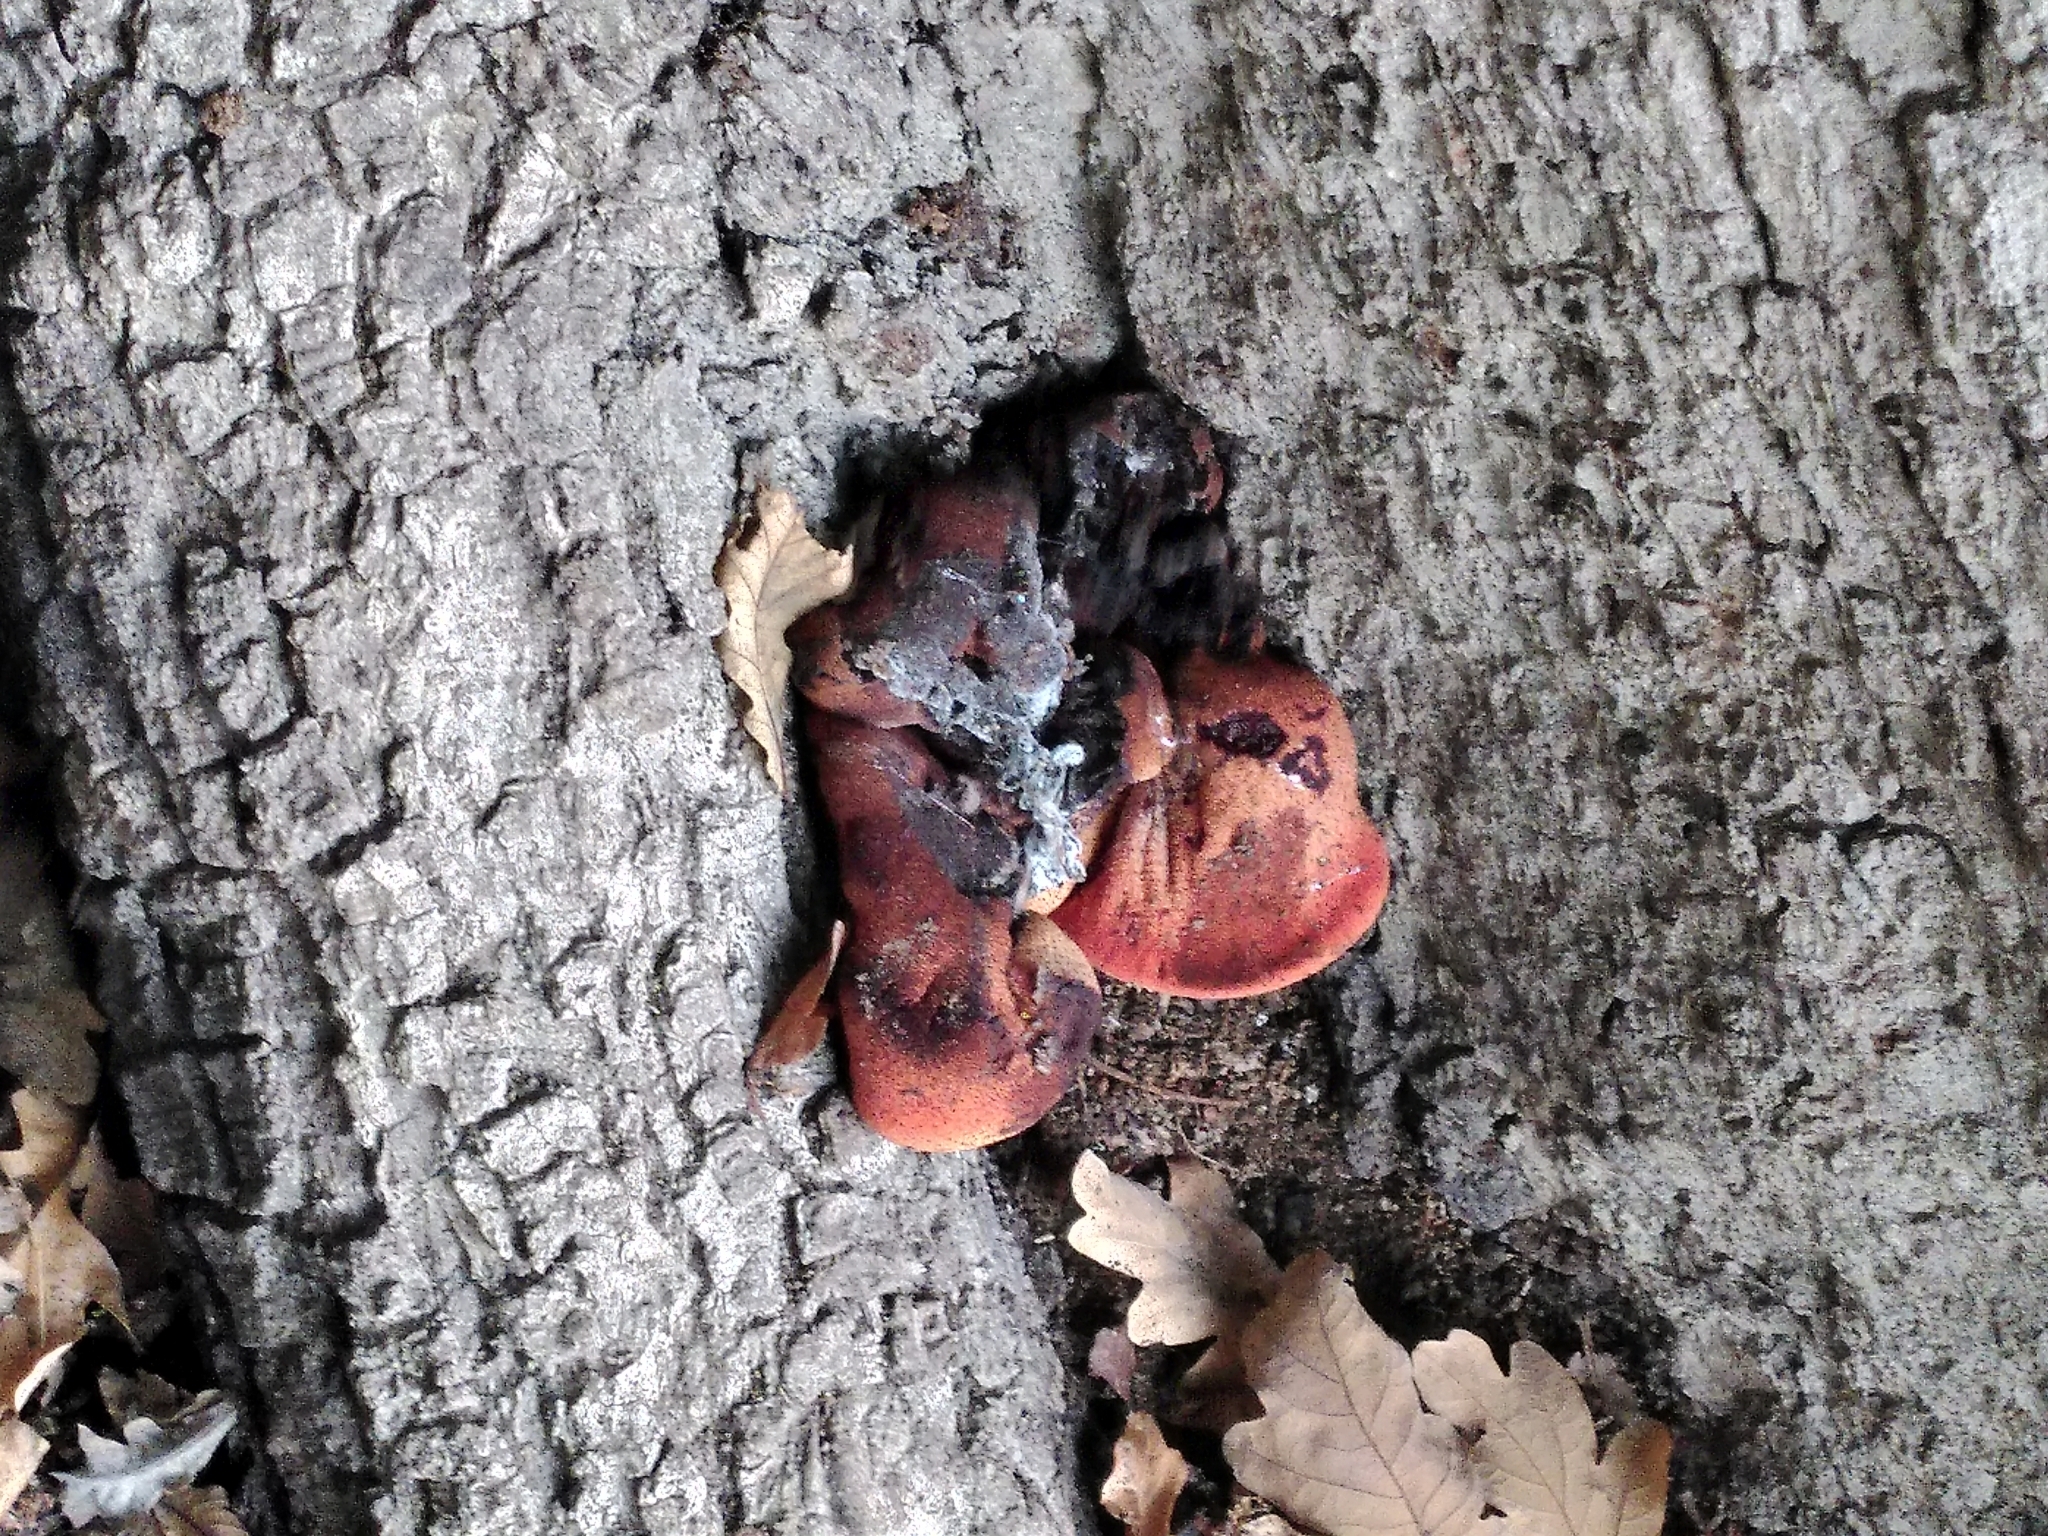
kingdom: Fungi
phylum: Basidiomycota
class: Agaricomycetes
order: Agaricales
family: Fistulinaceae
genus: Fistulina
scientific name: Fistulina hepatica
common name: Beef-steak fungus
